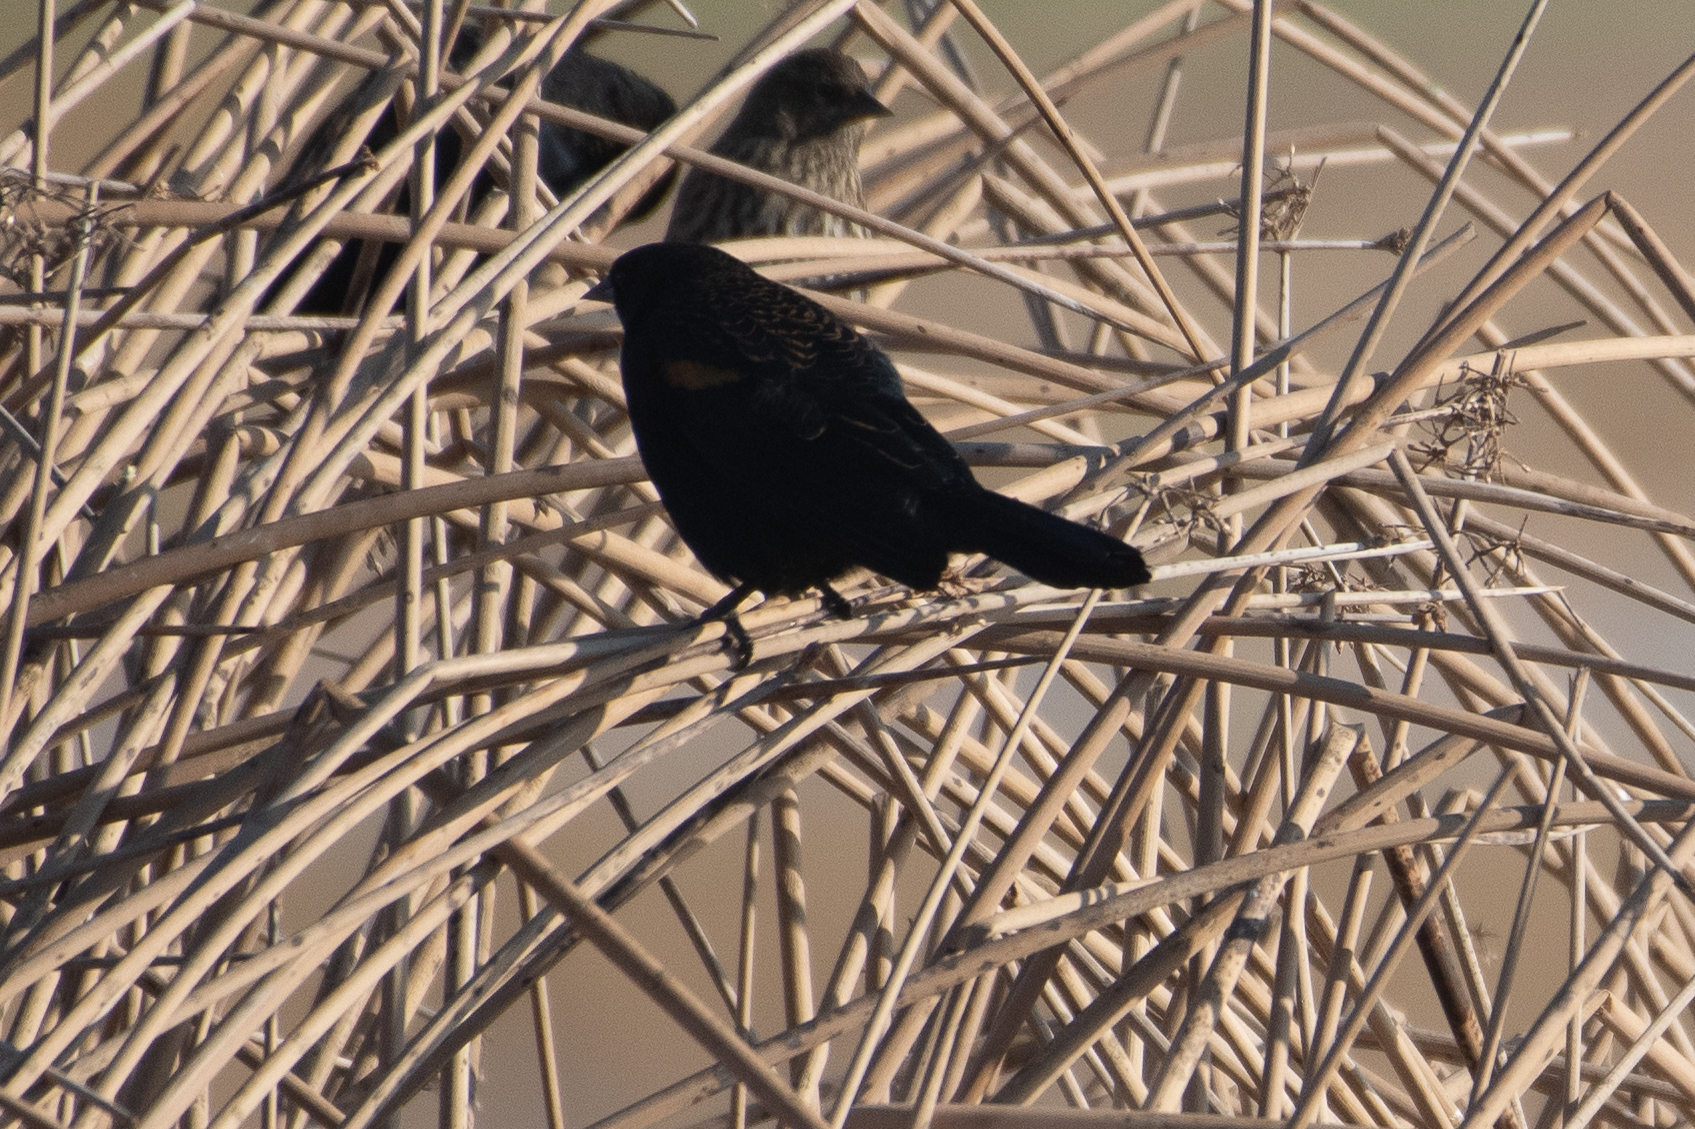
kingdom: Animalia
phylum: Chordata
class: Aves
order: Passeriformes
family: Icteridae
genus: Agelaius
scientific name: Agelaius phoeniceus
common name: Red-winged blackbird
